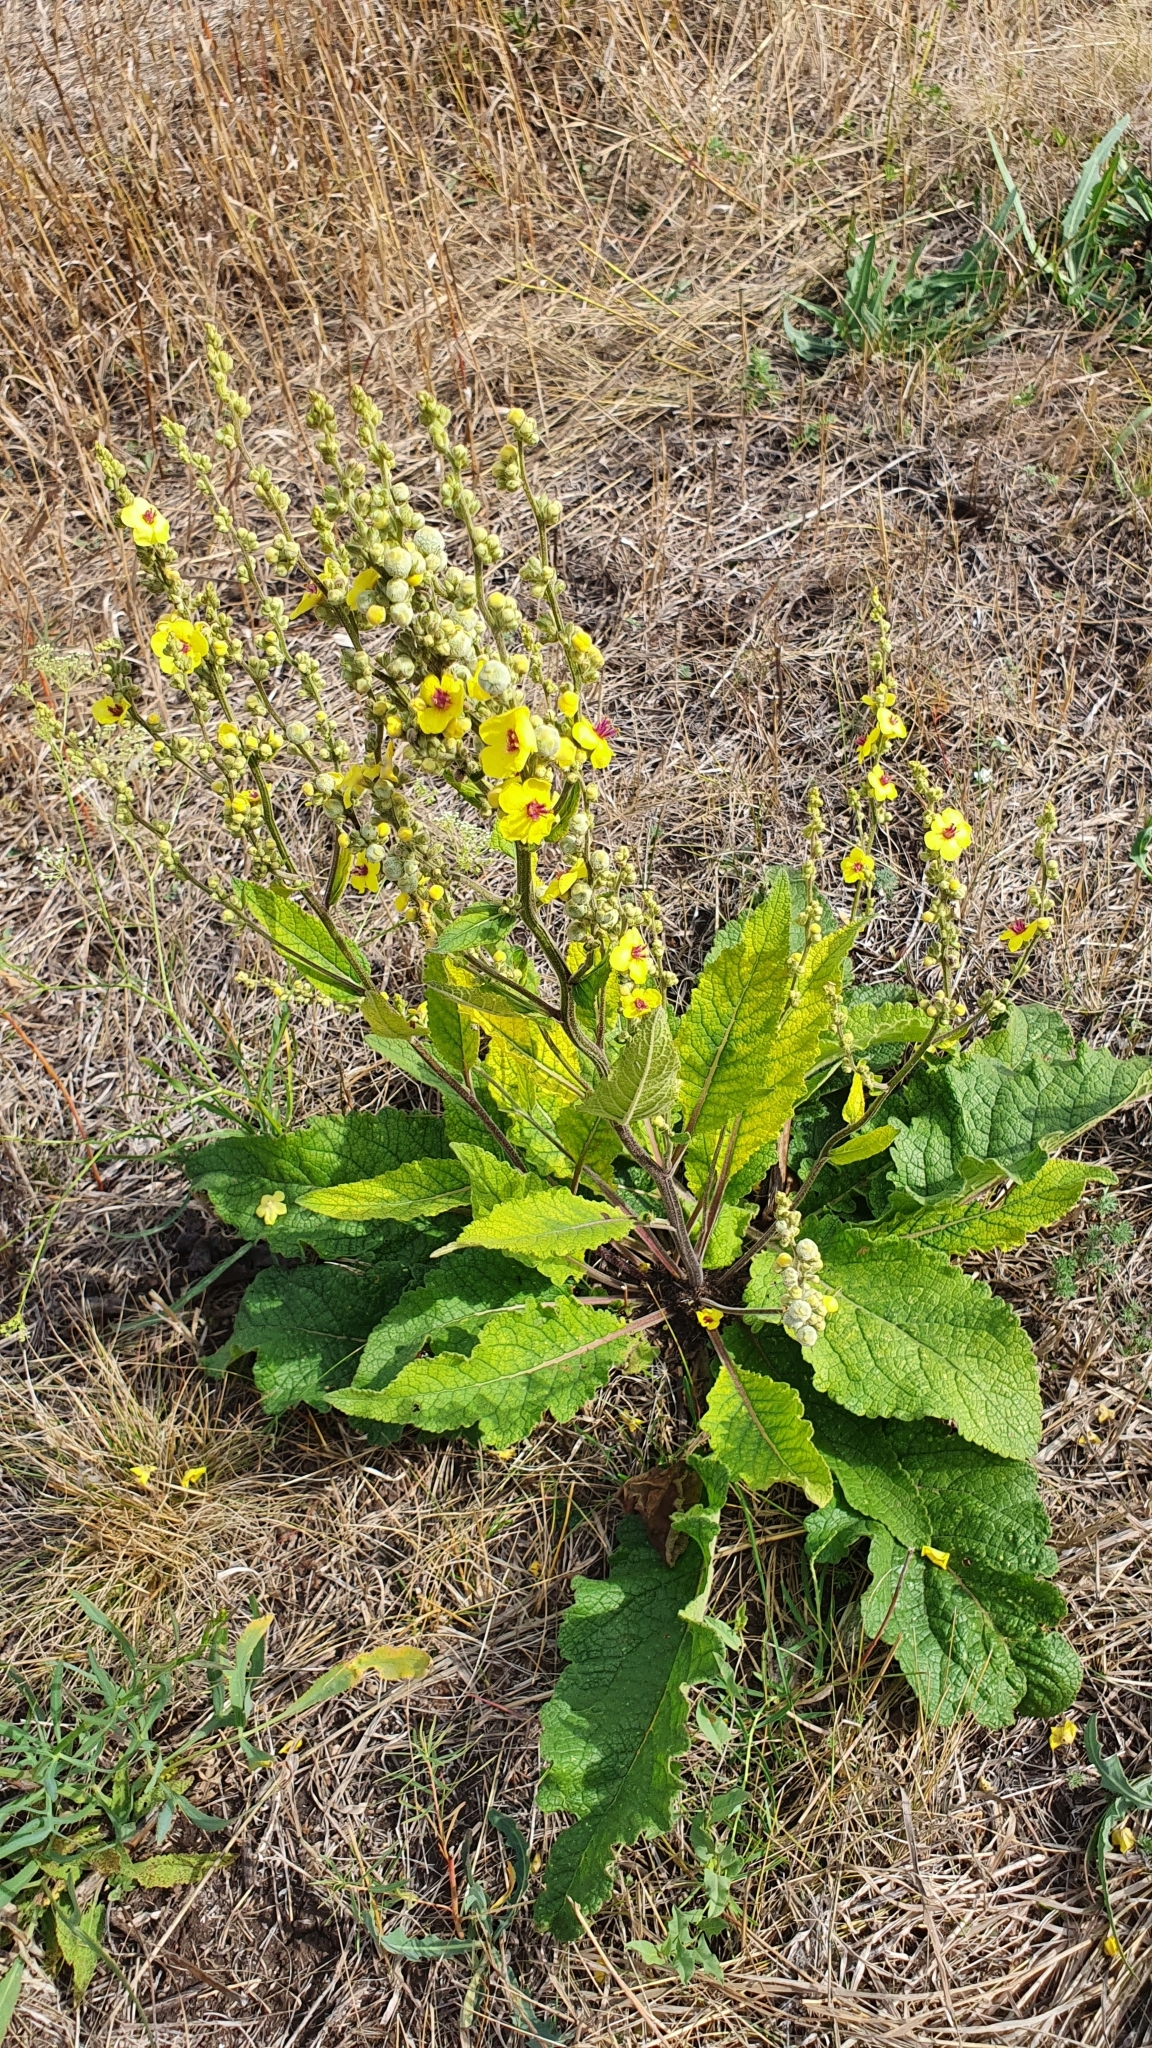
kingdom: Plantae
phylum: Tracheophyta
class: Magnoliopsida
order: Lamiales
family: Scrophulariaceae
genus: Verbascum
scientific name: Verbascum chaixii
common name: Nettle-leaved mullein
